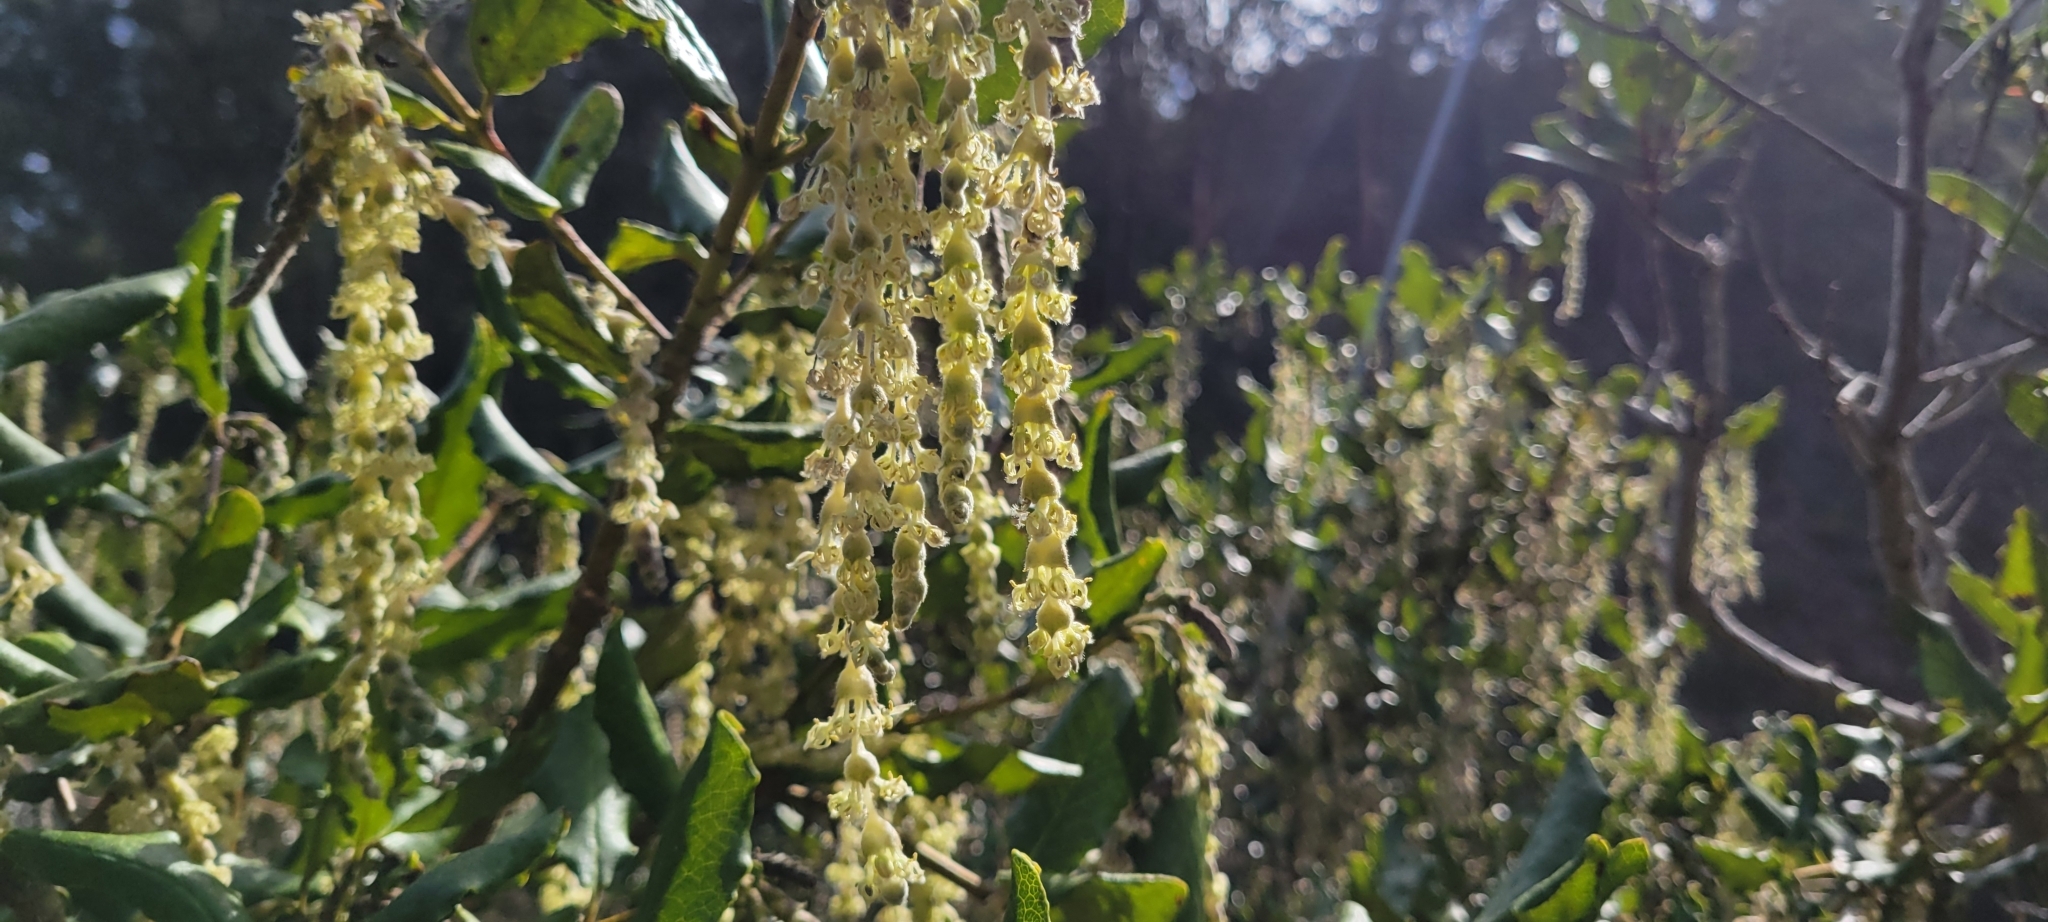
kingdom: Plantae
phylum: Tracheophyta
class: Magnoliopsida
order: Garryales
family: Garryaceae
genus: Garrya
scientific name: Garrya elliptica
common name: Silk-tassel
